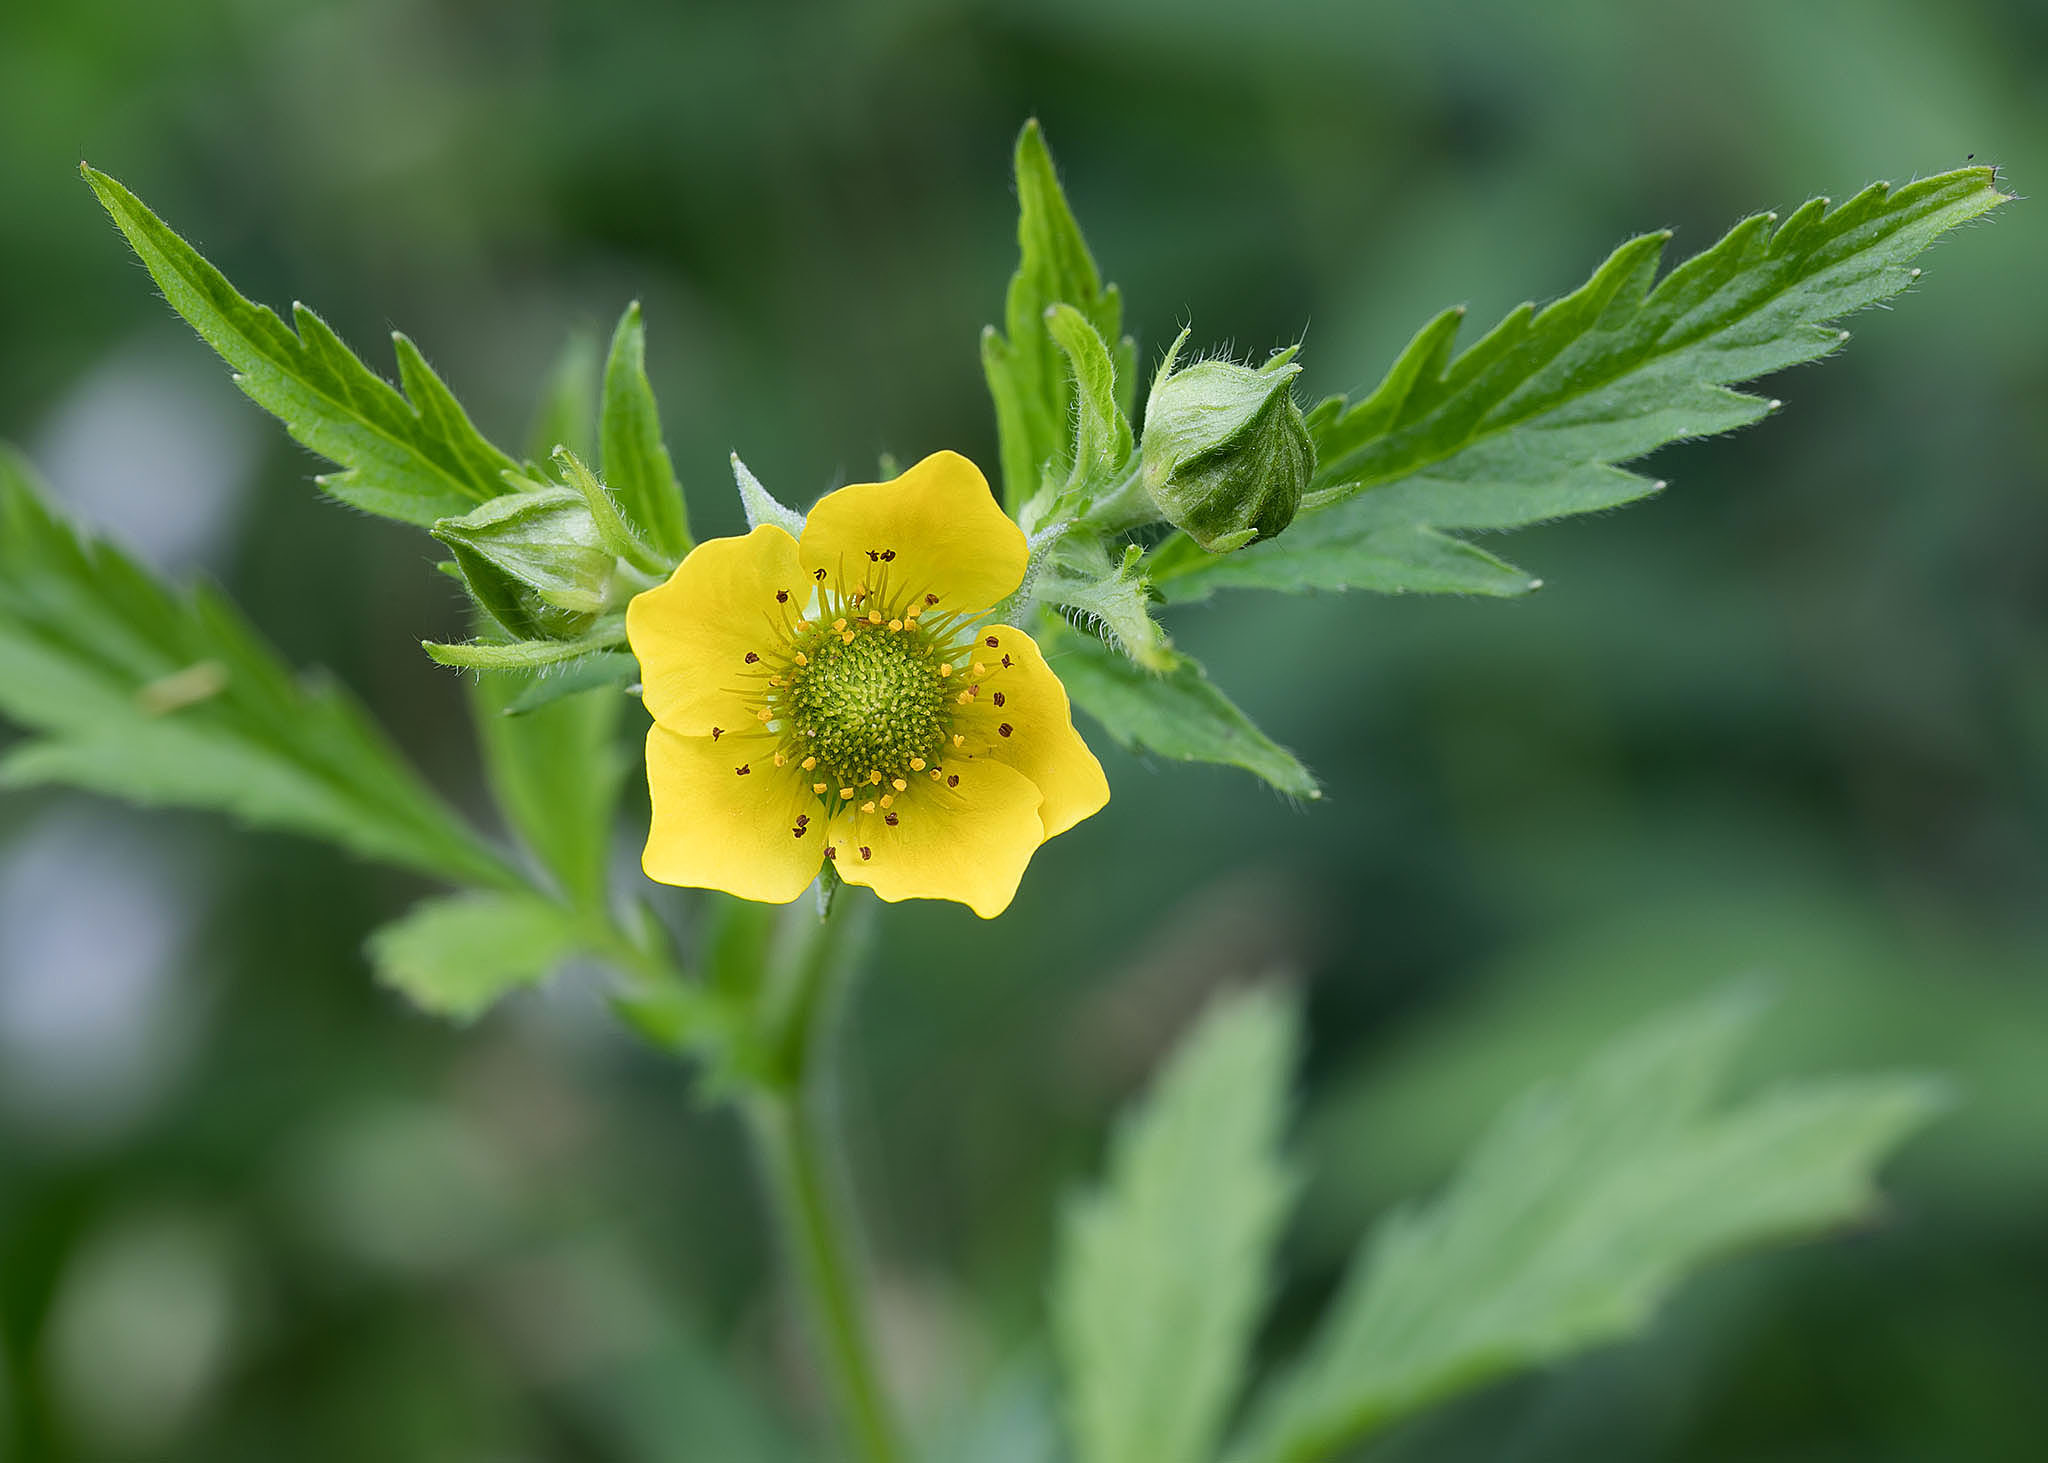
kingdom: Plantae
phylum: Tracheophyta
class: Magnoliopsida
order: Rosales
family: Rosaceae
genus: Geum
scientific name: Geum aleppicum
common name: Yellow avens
